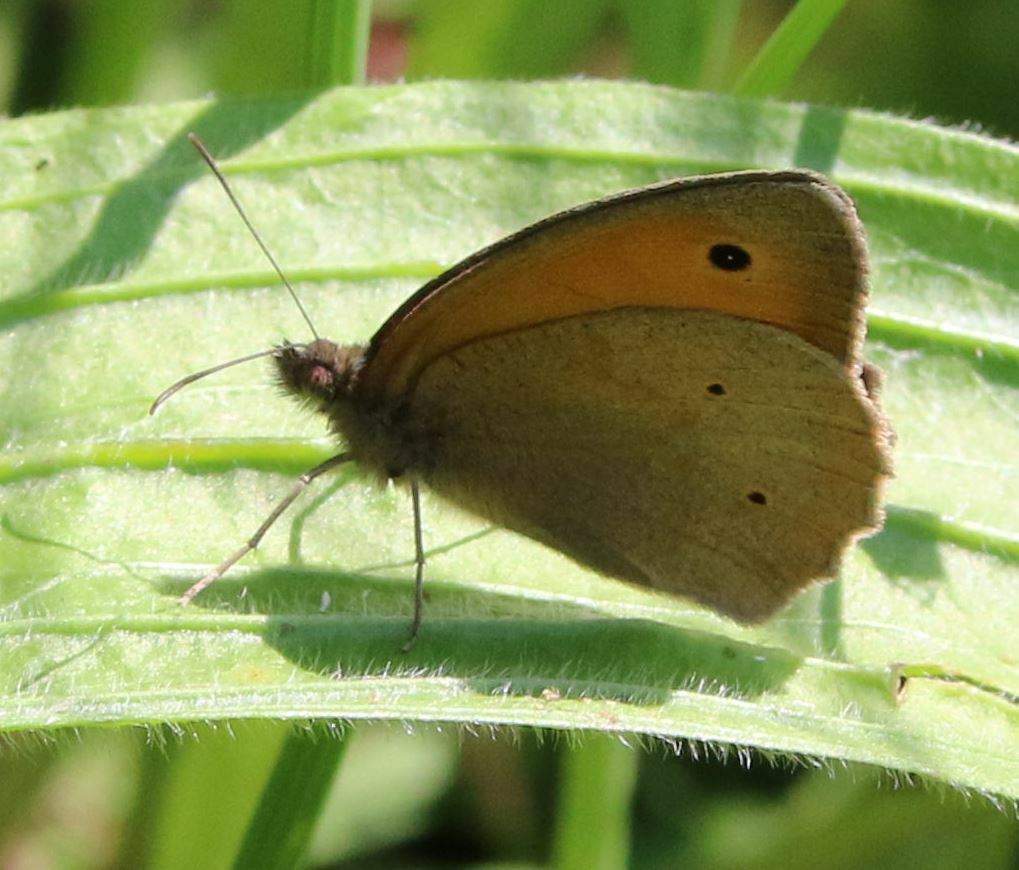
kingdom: Animalia
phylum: Arthropoda
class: Insecta
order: Lepidoptera
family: Nymphalidae
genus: Maniola
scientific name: Maniola jurtina
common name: Meadow brown
